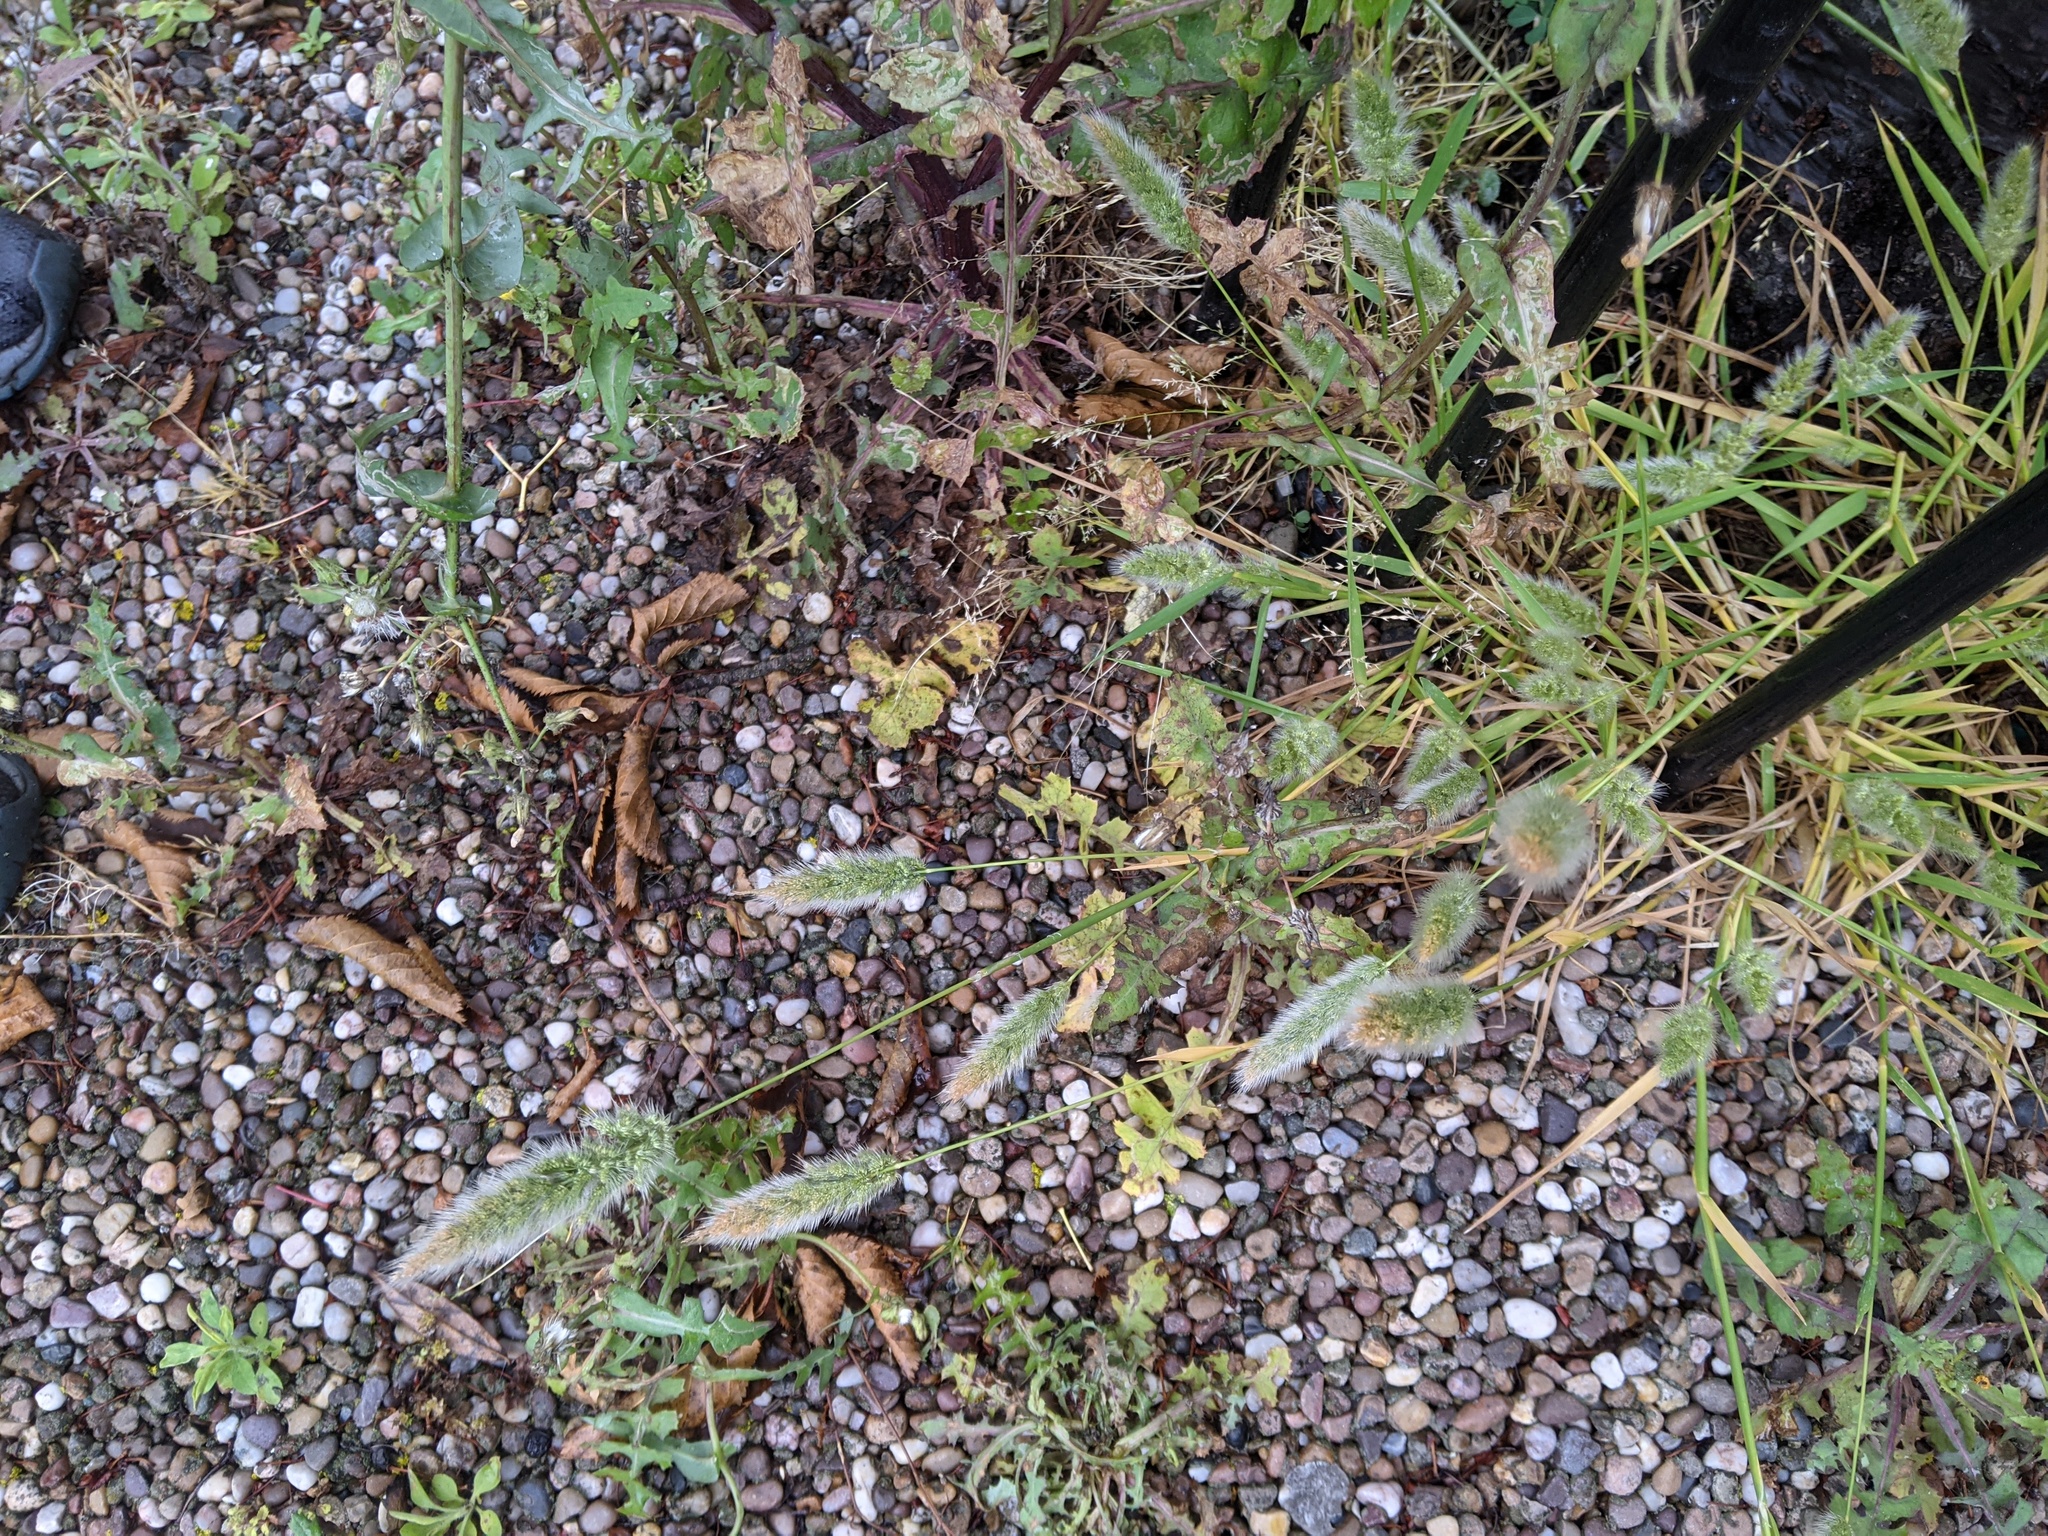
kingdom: Plantae
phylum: Tracheophyta
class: Liliopsida
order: Poales
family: Poaceae
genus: Polypogon
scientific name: Polypogon monspeliensis
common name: Annual rabbitsfoot grass
